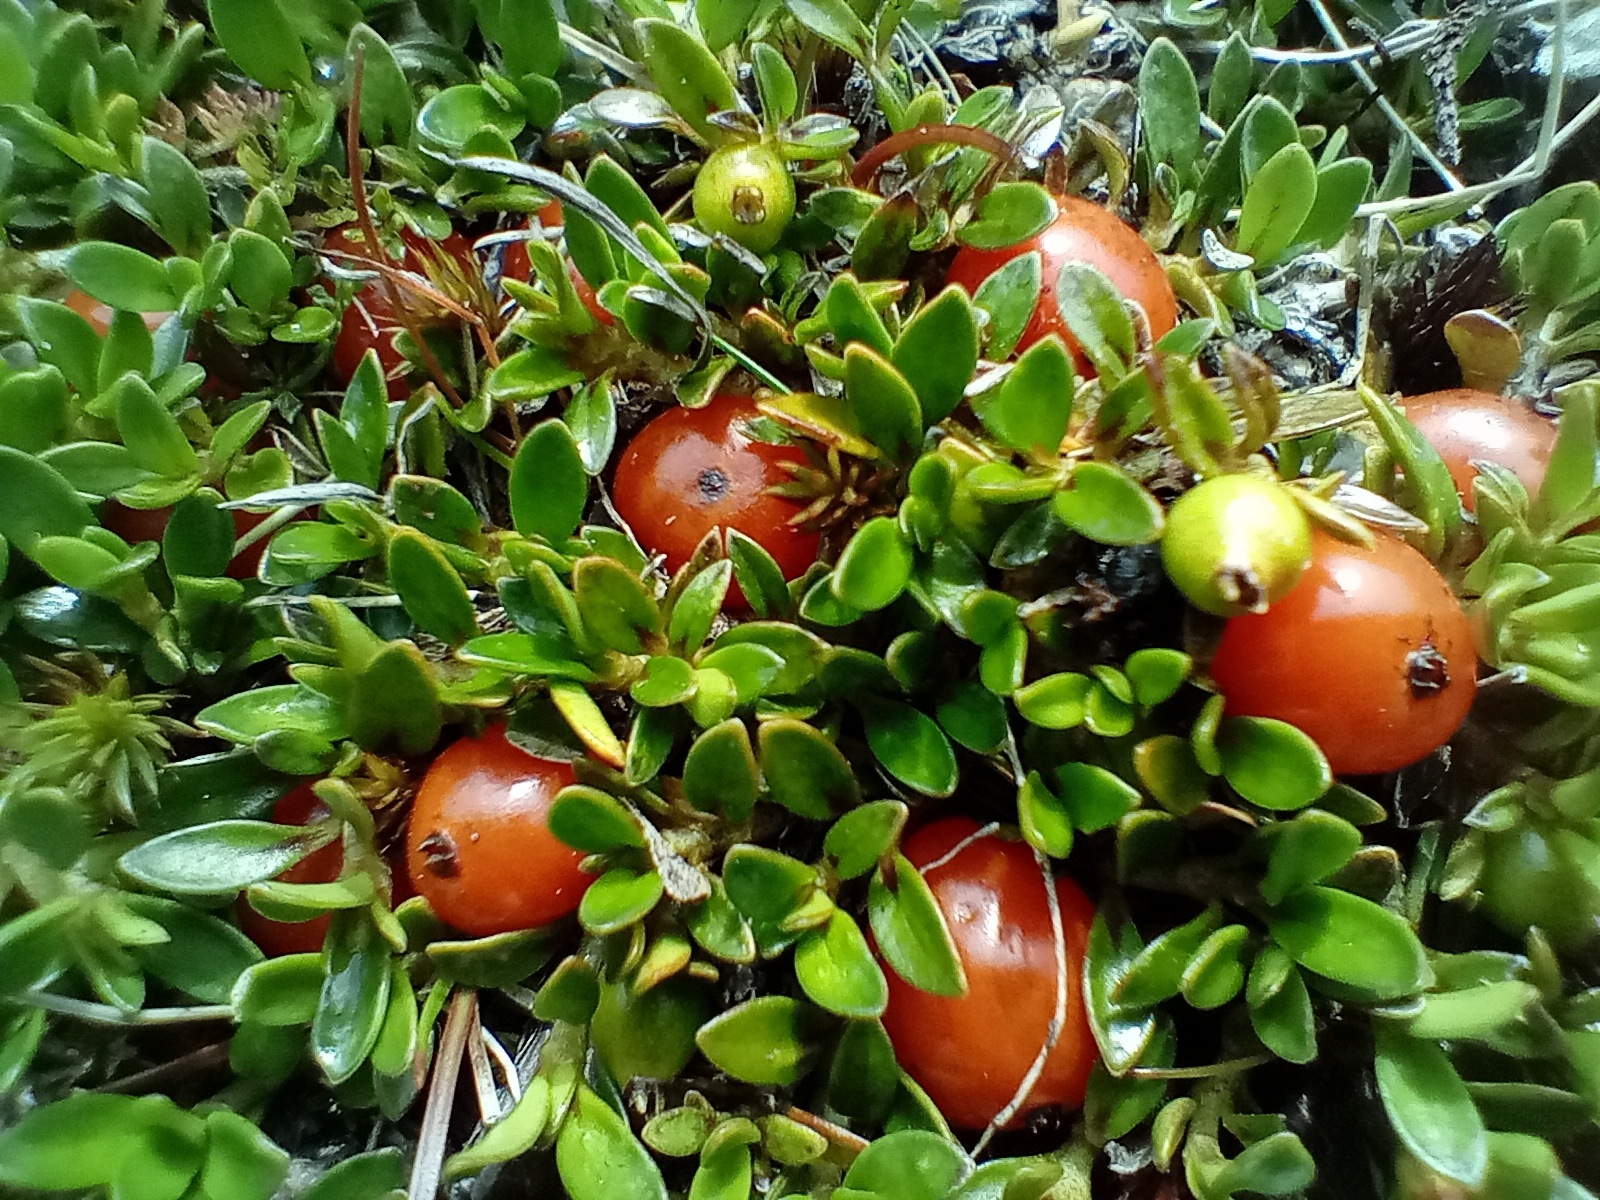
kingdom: Plantae
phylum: Tracheophyta
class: Magnoliopsida
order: Gentianales
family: Rubiaceae
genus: Coprosma
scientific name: Coprosma perpusilla
